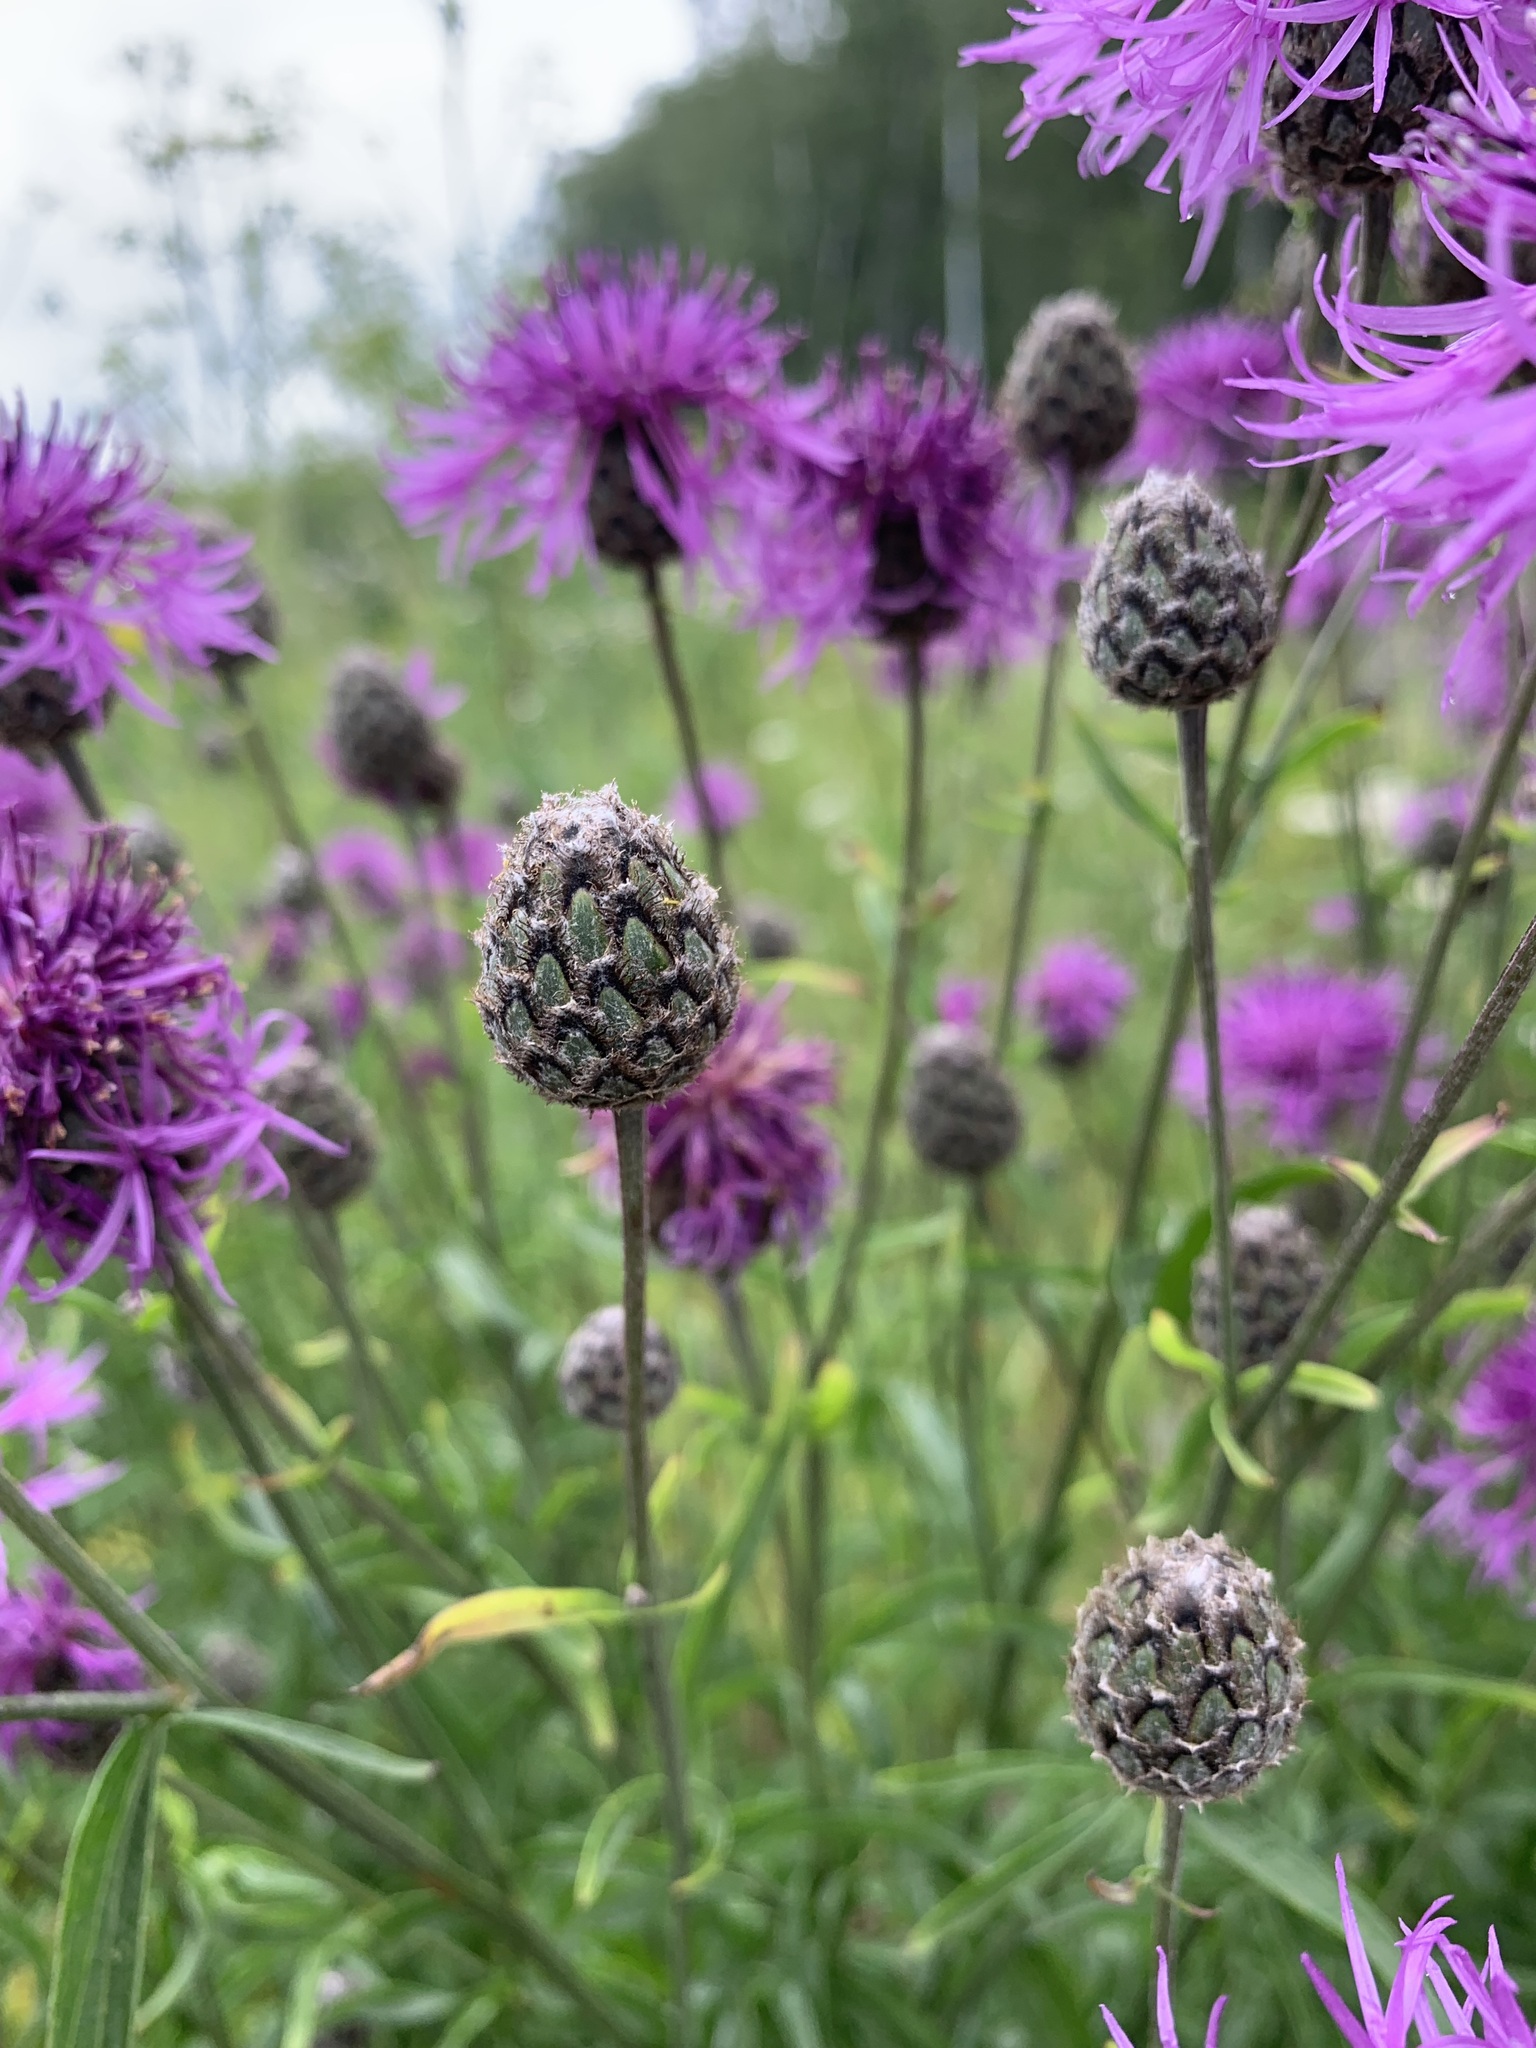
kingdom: Plantae
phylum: Tracheophyta
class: Magnoliopsida
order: Asterales
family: Asteraceae
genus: Centaurea
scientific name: Centaurea scabiosa
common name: Greater knapweed
